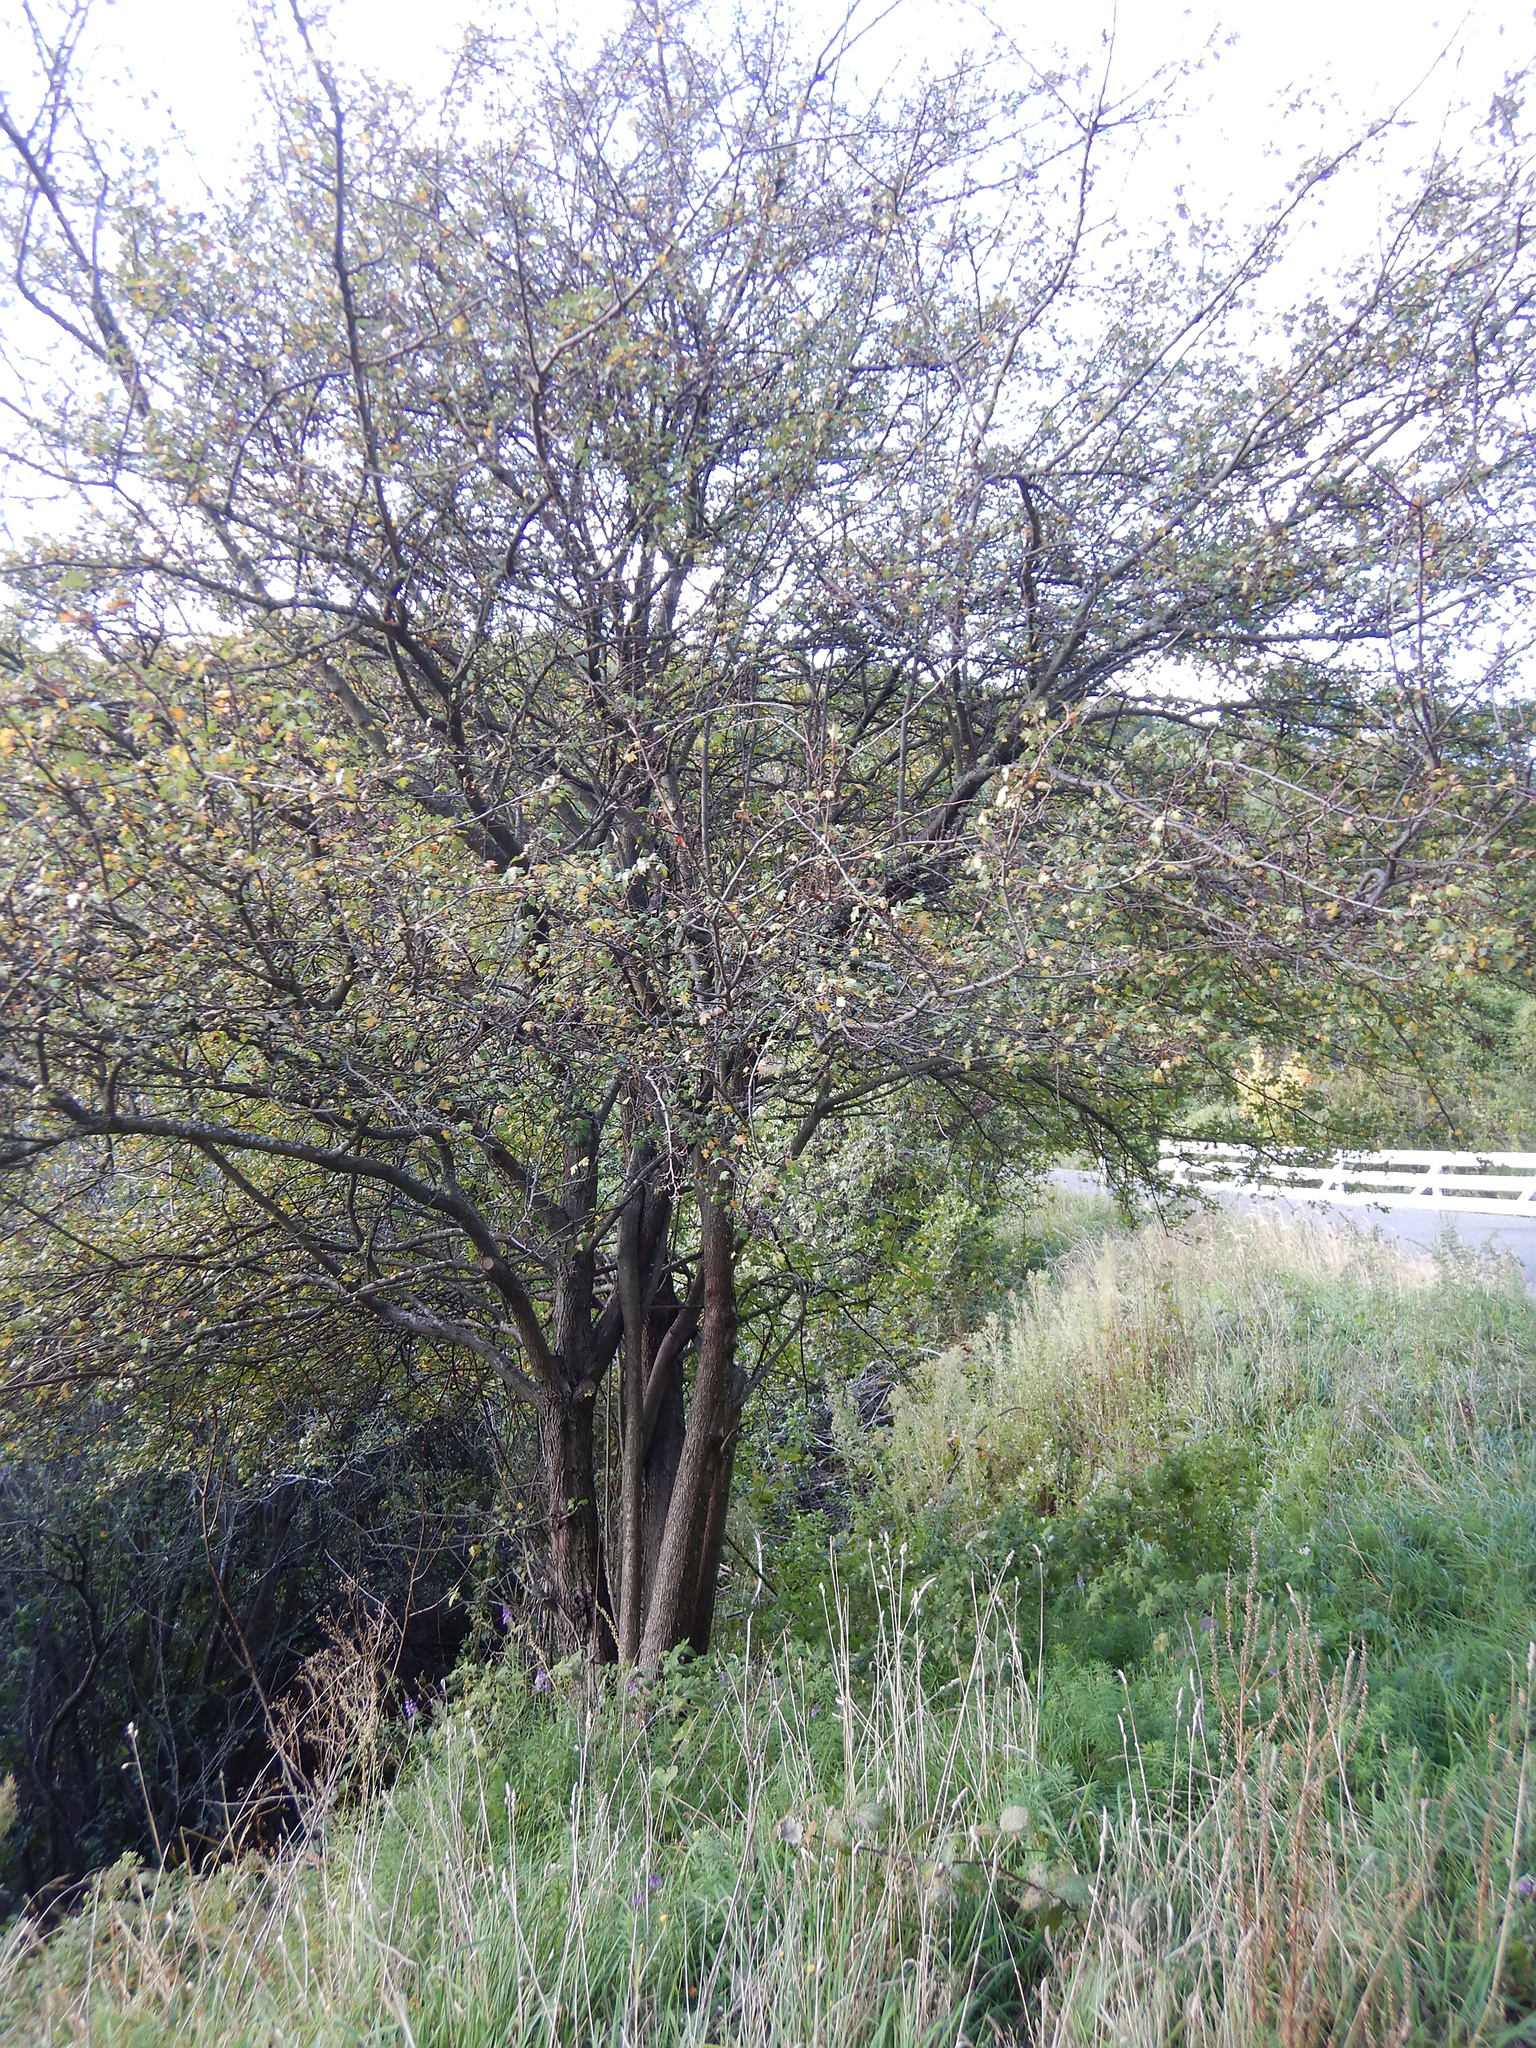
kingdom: Plantae
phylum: Tracheophyta
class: Magnoliopsida
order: Rosales
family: Rosaceae
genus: Crataegus
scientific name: Crataegus monogyna
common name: Hawthorn
